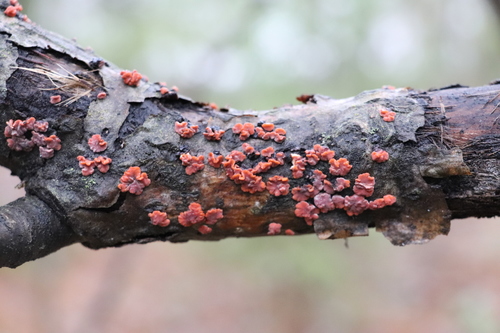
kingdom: Fungi
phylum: Basidiomycota
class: Agaricomycetes
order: Russulales
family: Peniophoraceae
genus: Peniophora
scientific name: Peniophora rufa
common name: Red tree brain fungus
